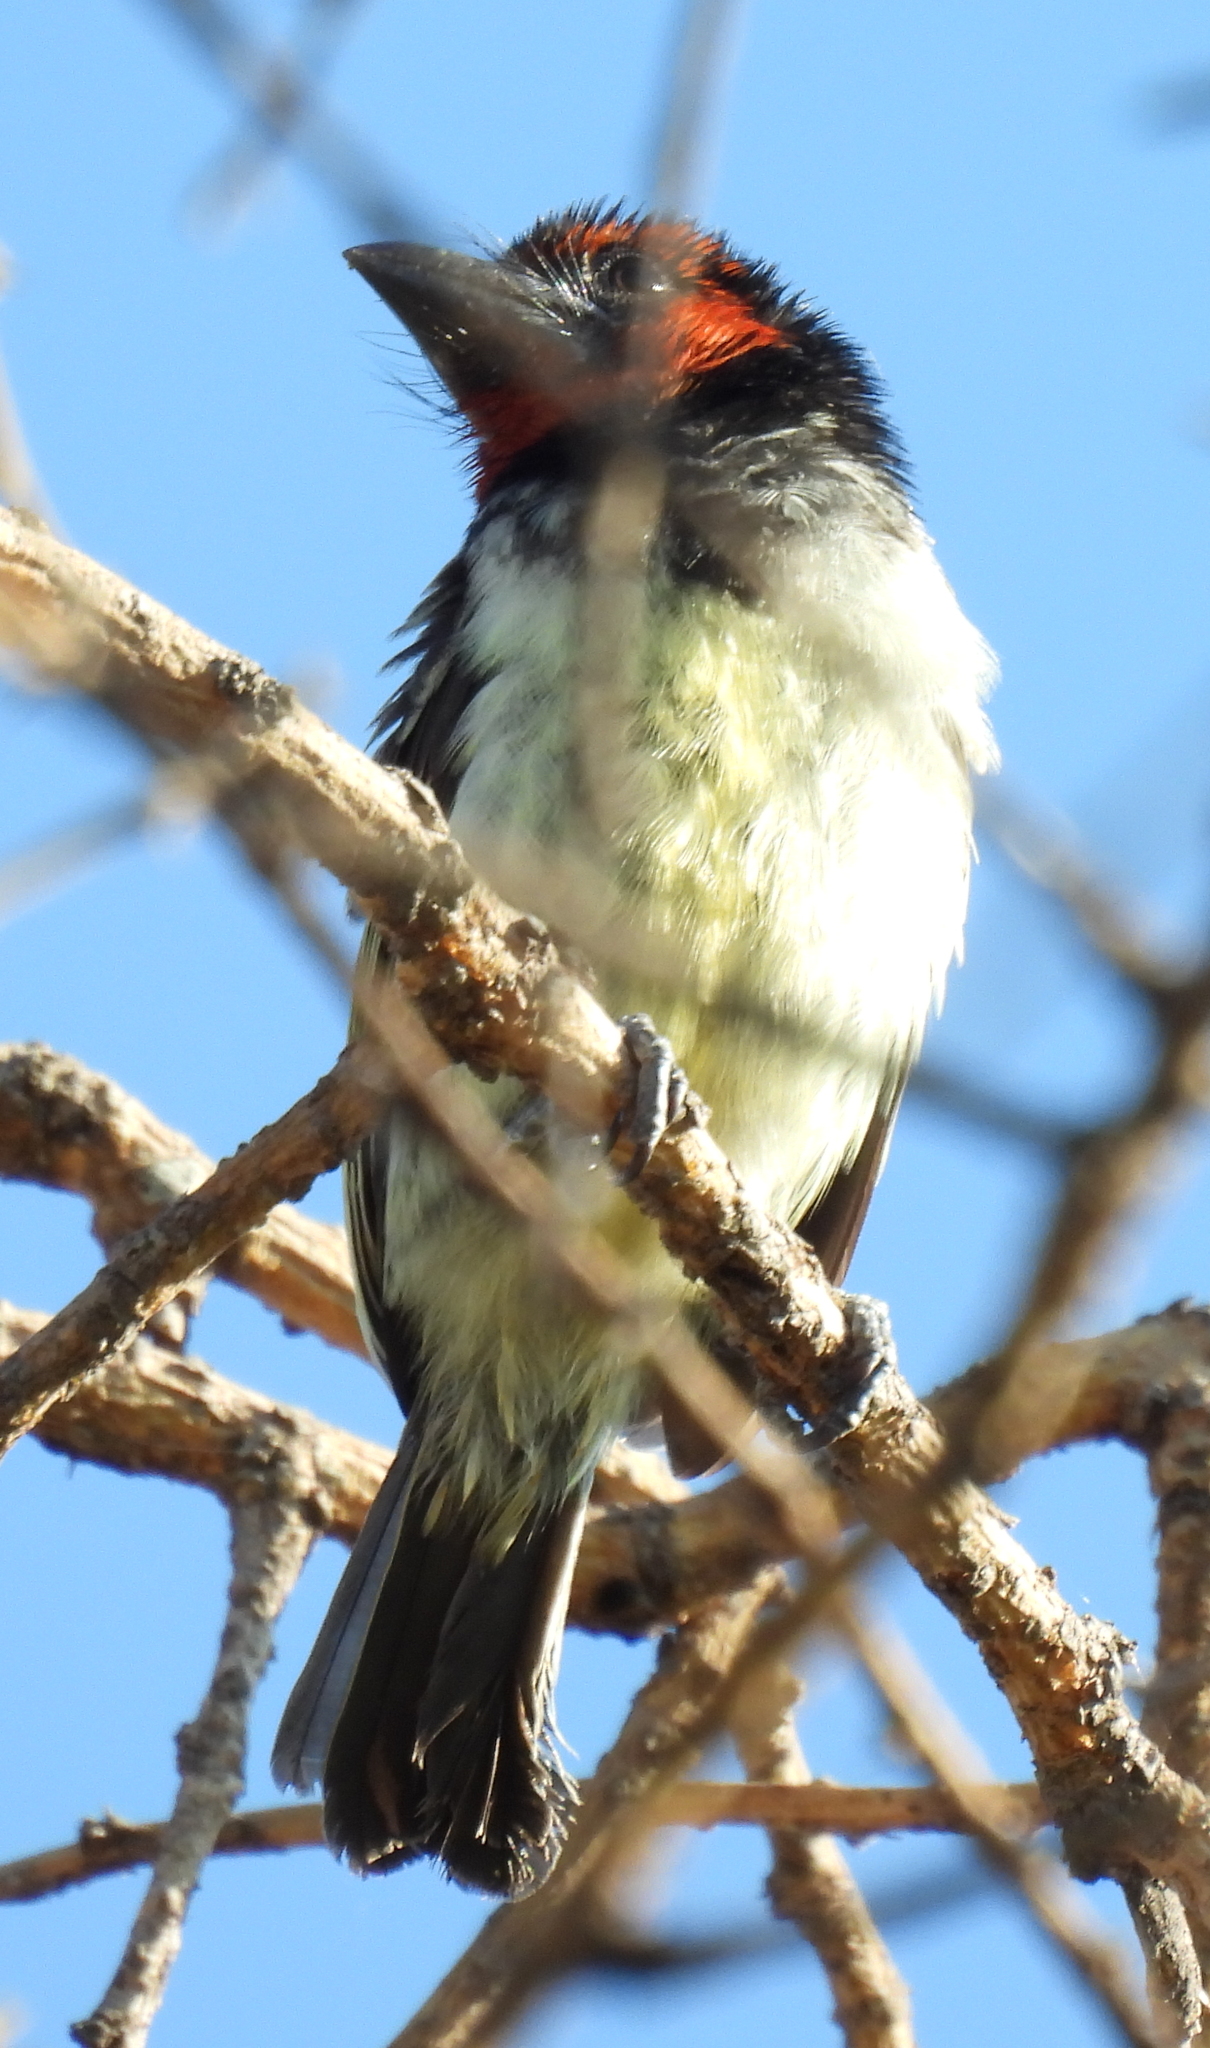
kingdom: Animalia
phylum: Chordata
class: Aves
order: Piciformes
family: Lybiidae
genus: Lybius
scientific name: Lybius torquatus
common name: Black-collared barbet
